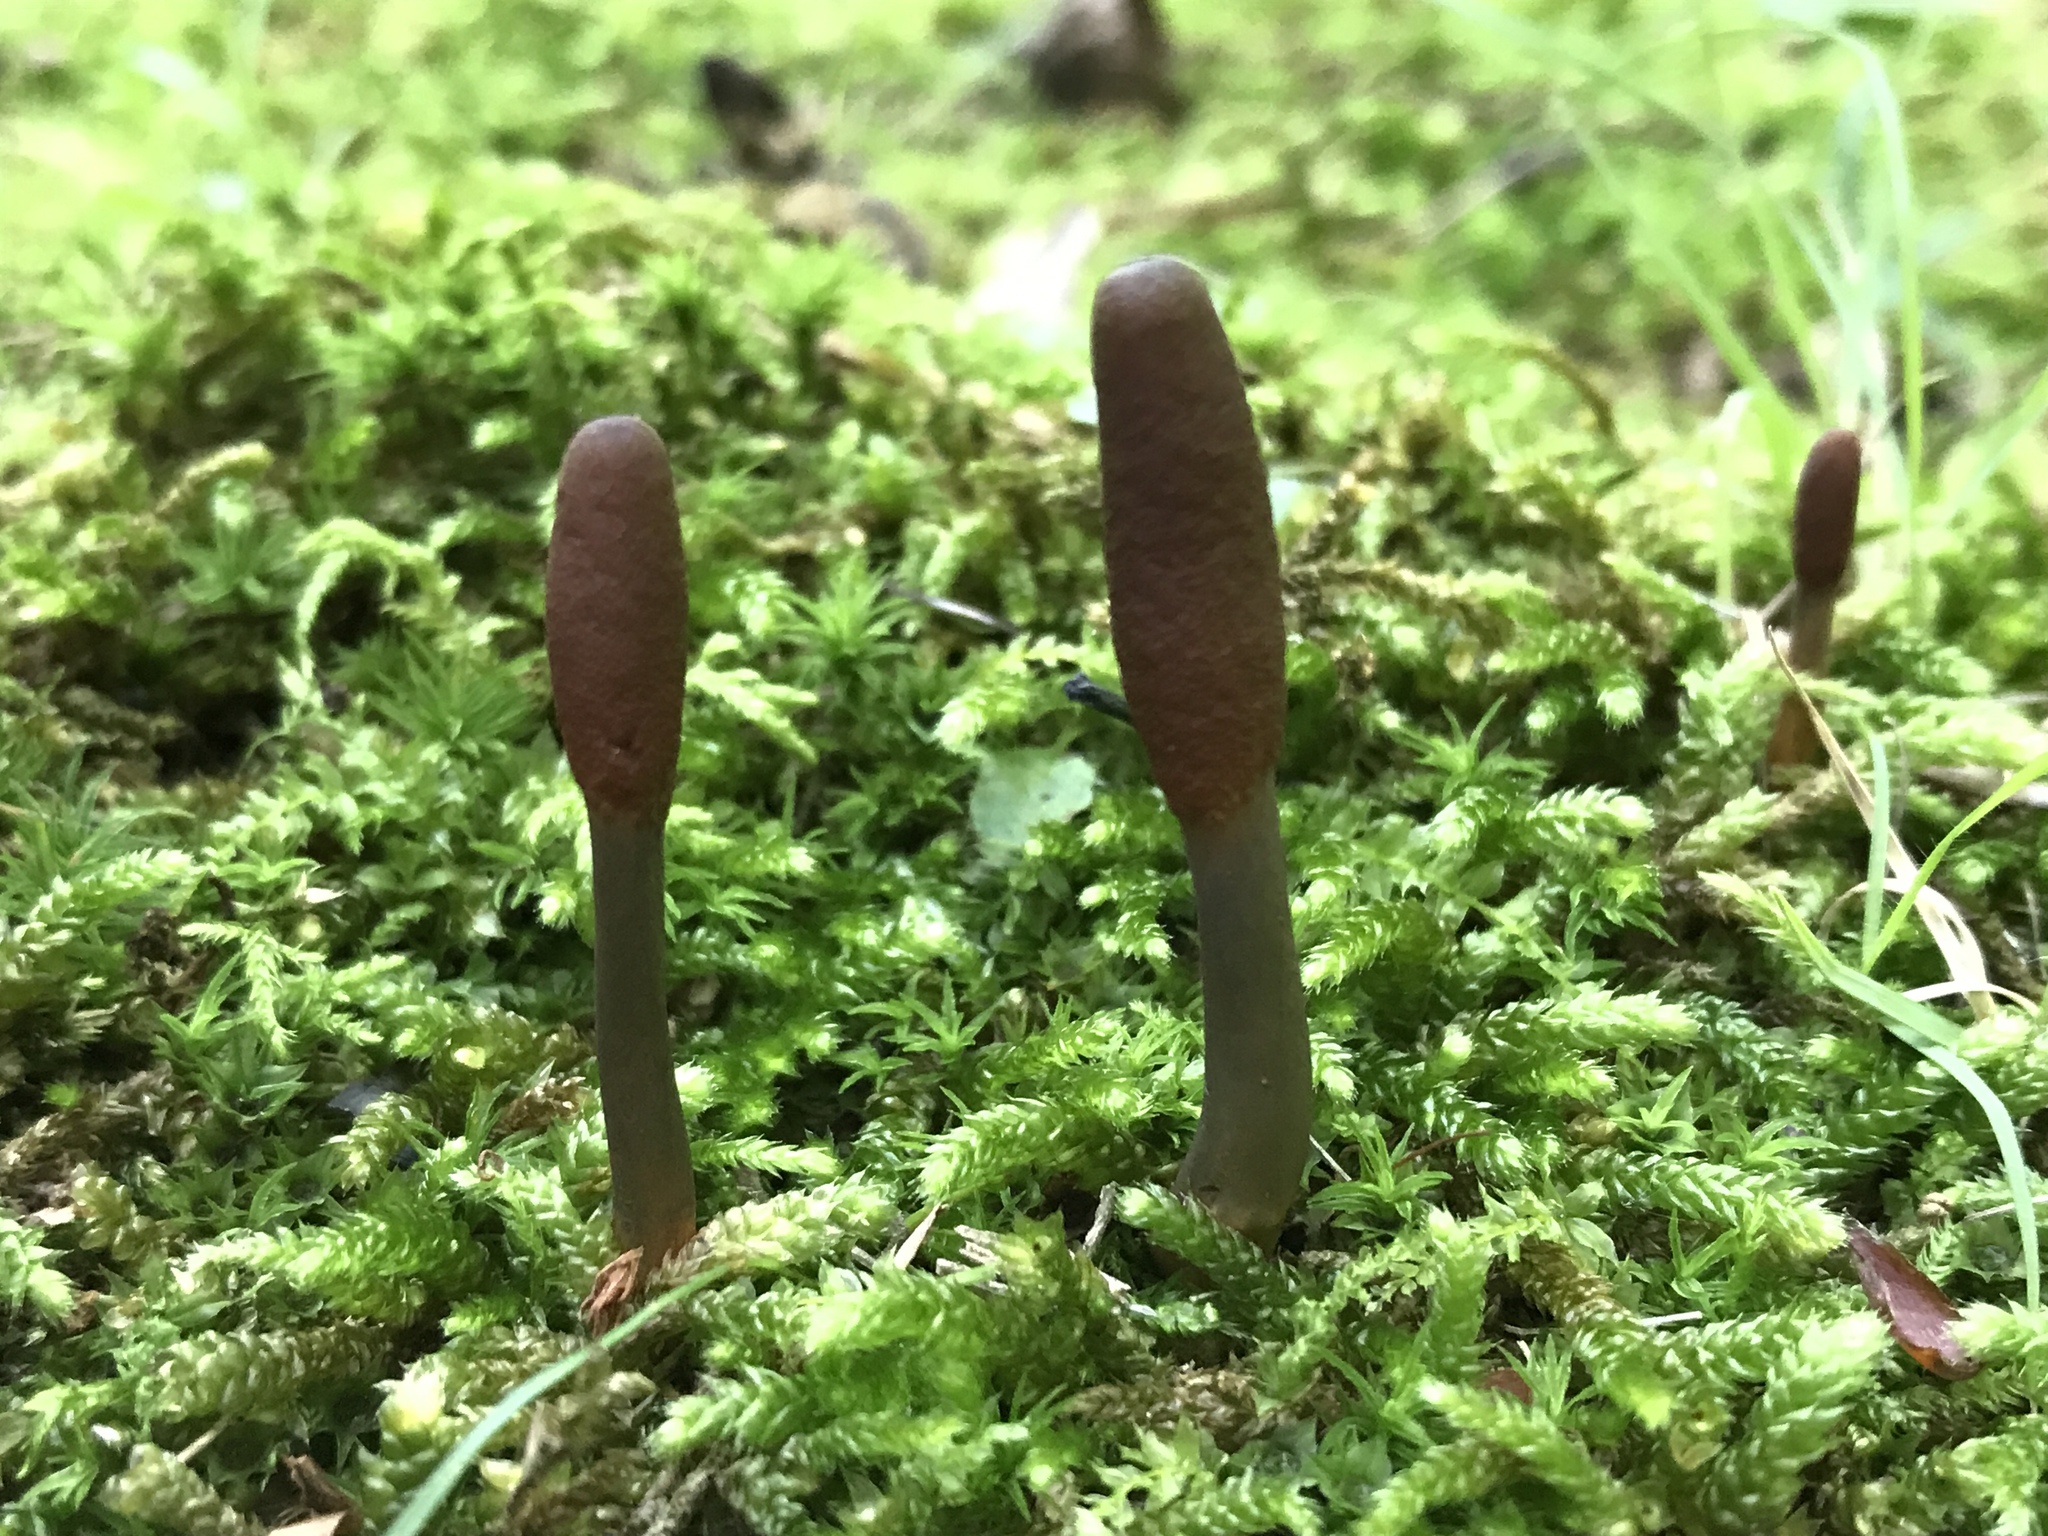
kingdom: Fungi
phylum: Ascomycota
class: Sordariomycetes
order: Hypocreales
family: Ophiocordycipitaceae
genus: Tolypocladium
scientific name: Tolypocladium ophioglossoides
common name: Snaketongue truffleclub
